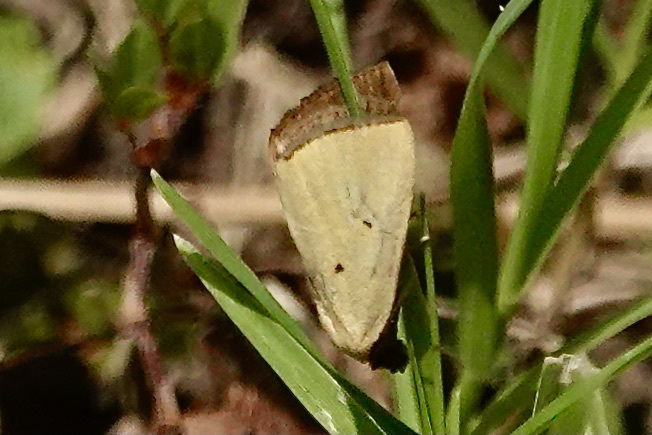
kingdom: Animalia
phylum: Arthropoda
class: Insecta
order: Lepidoptera
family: Noctuidae
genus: Marimatha
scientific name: Marimatha nigrofimbria
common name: Black-bordered lemon moth
